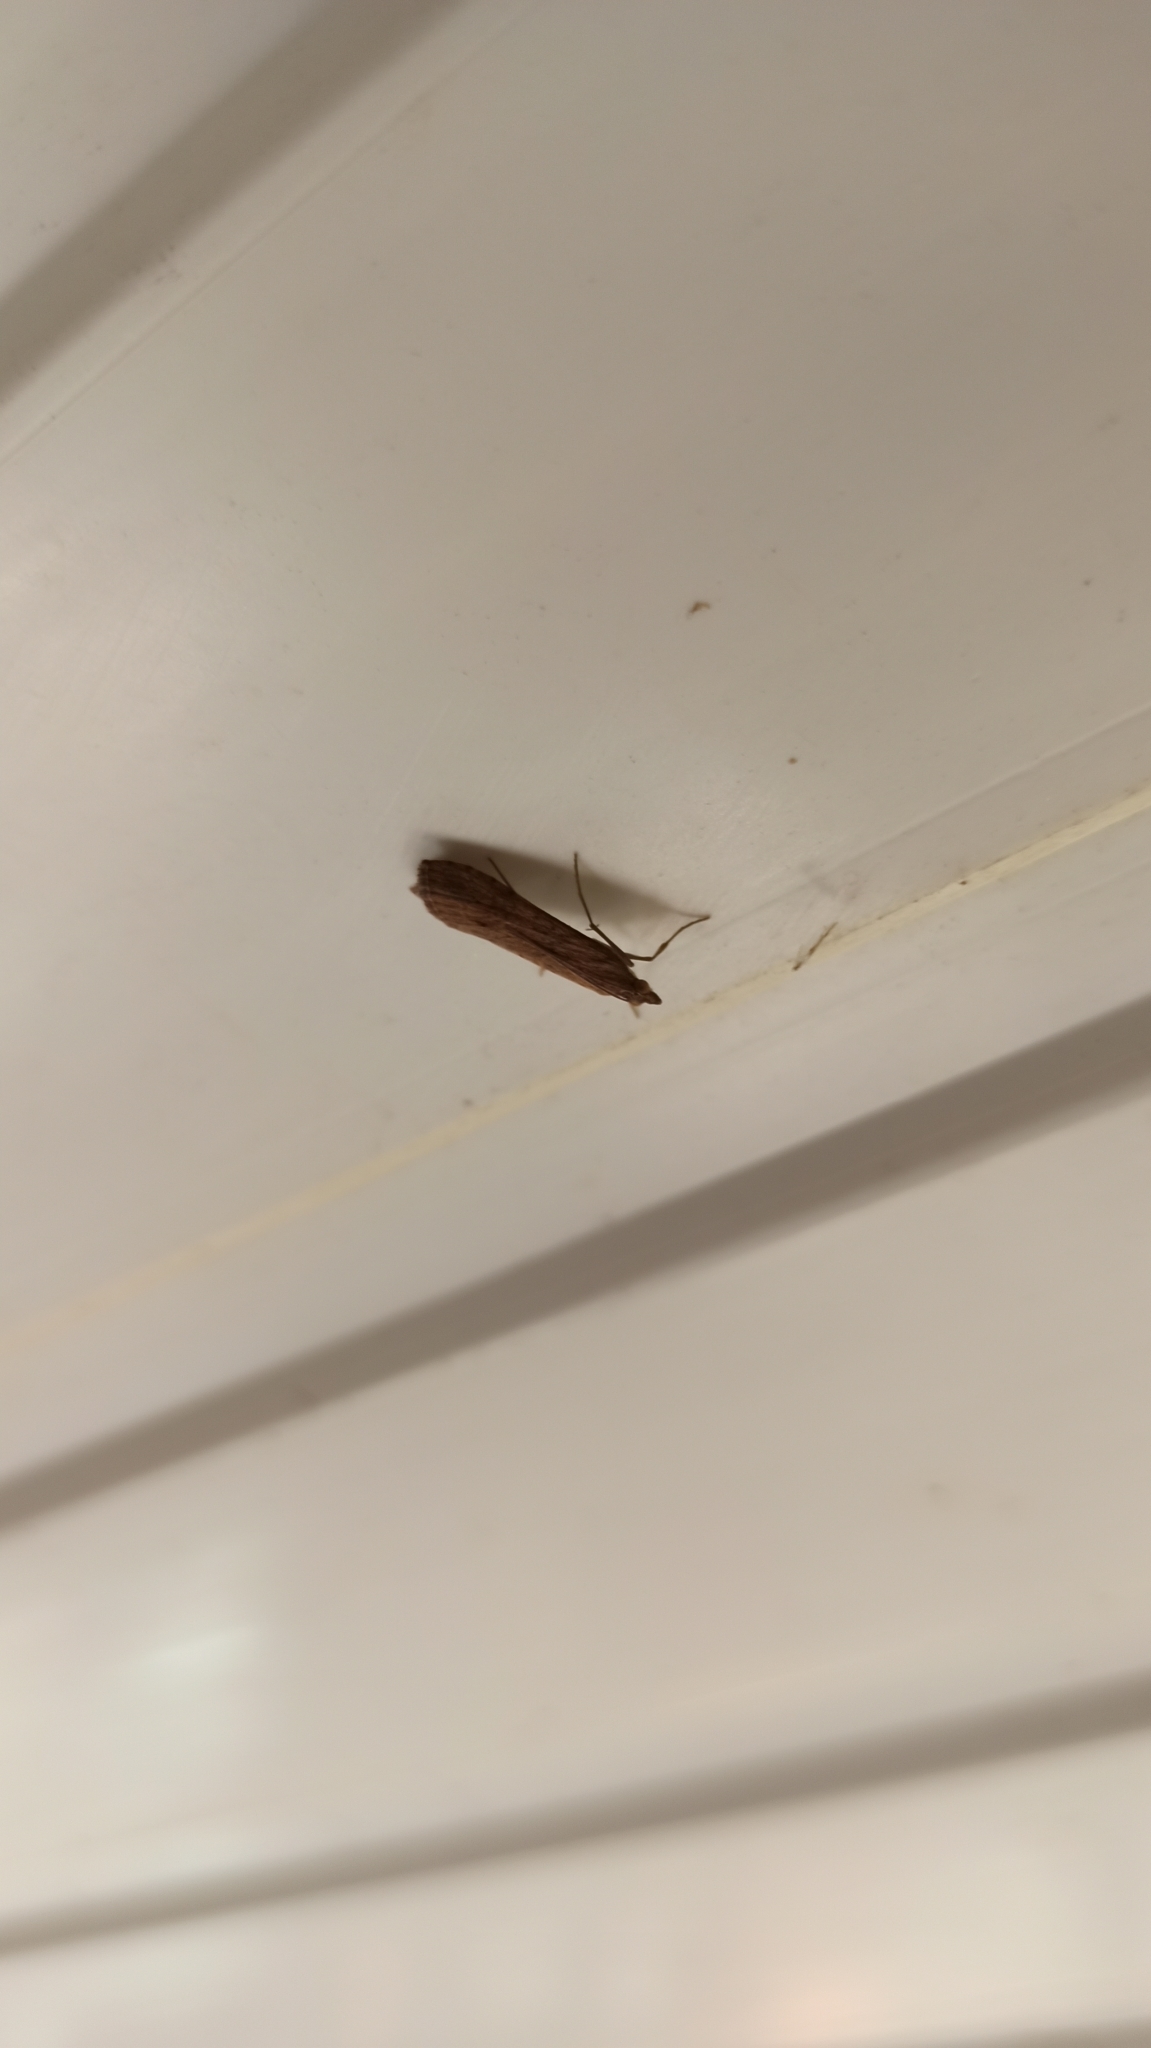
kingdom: Animalia
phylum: Arthropoda
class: Insecta
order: Lepidoptera
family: Crambidae
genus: Nomophila
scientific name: Nomophila noctuella
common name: Rush veneer
